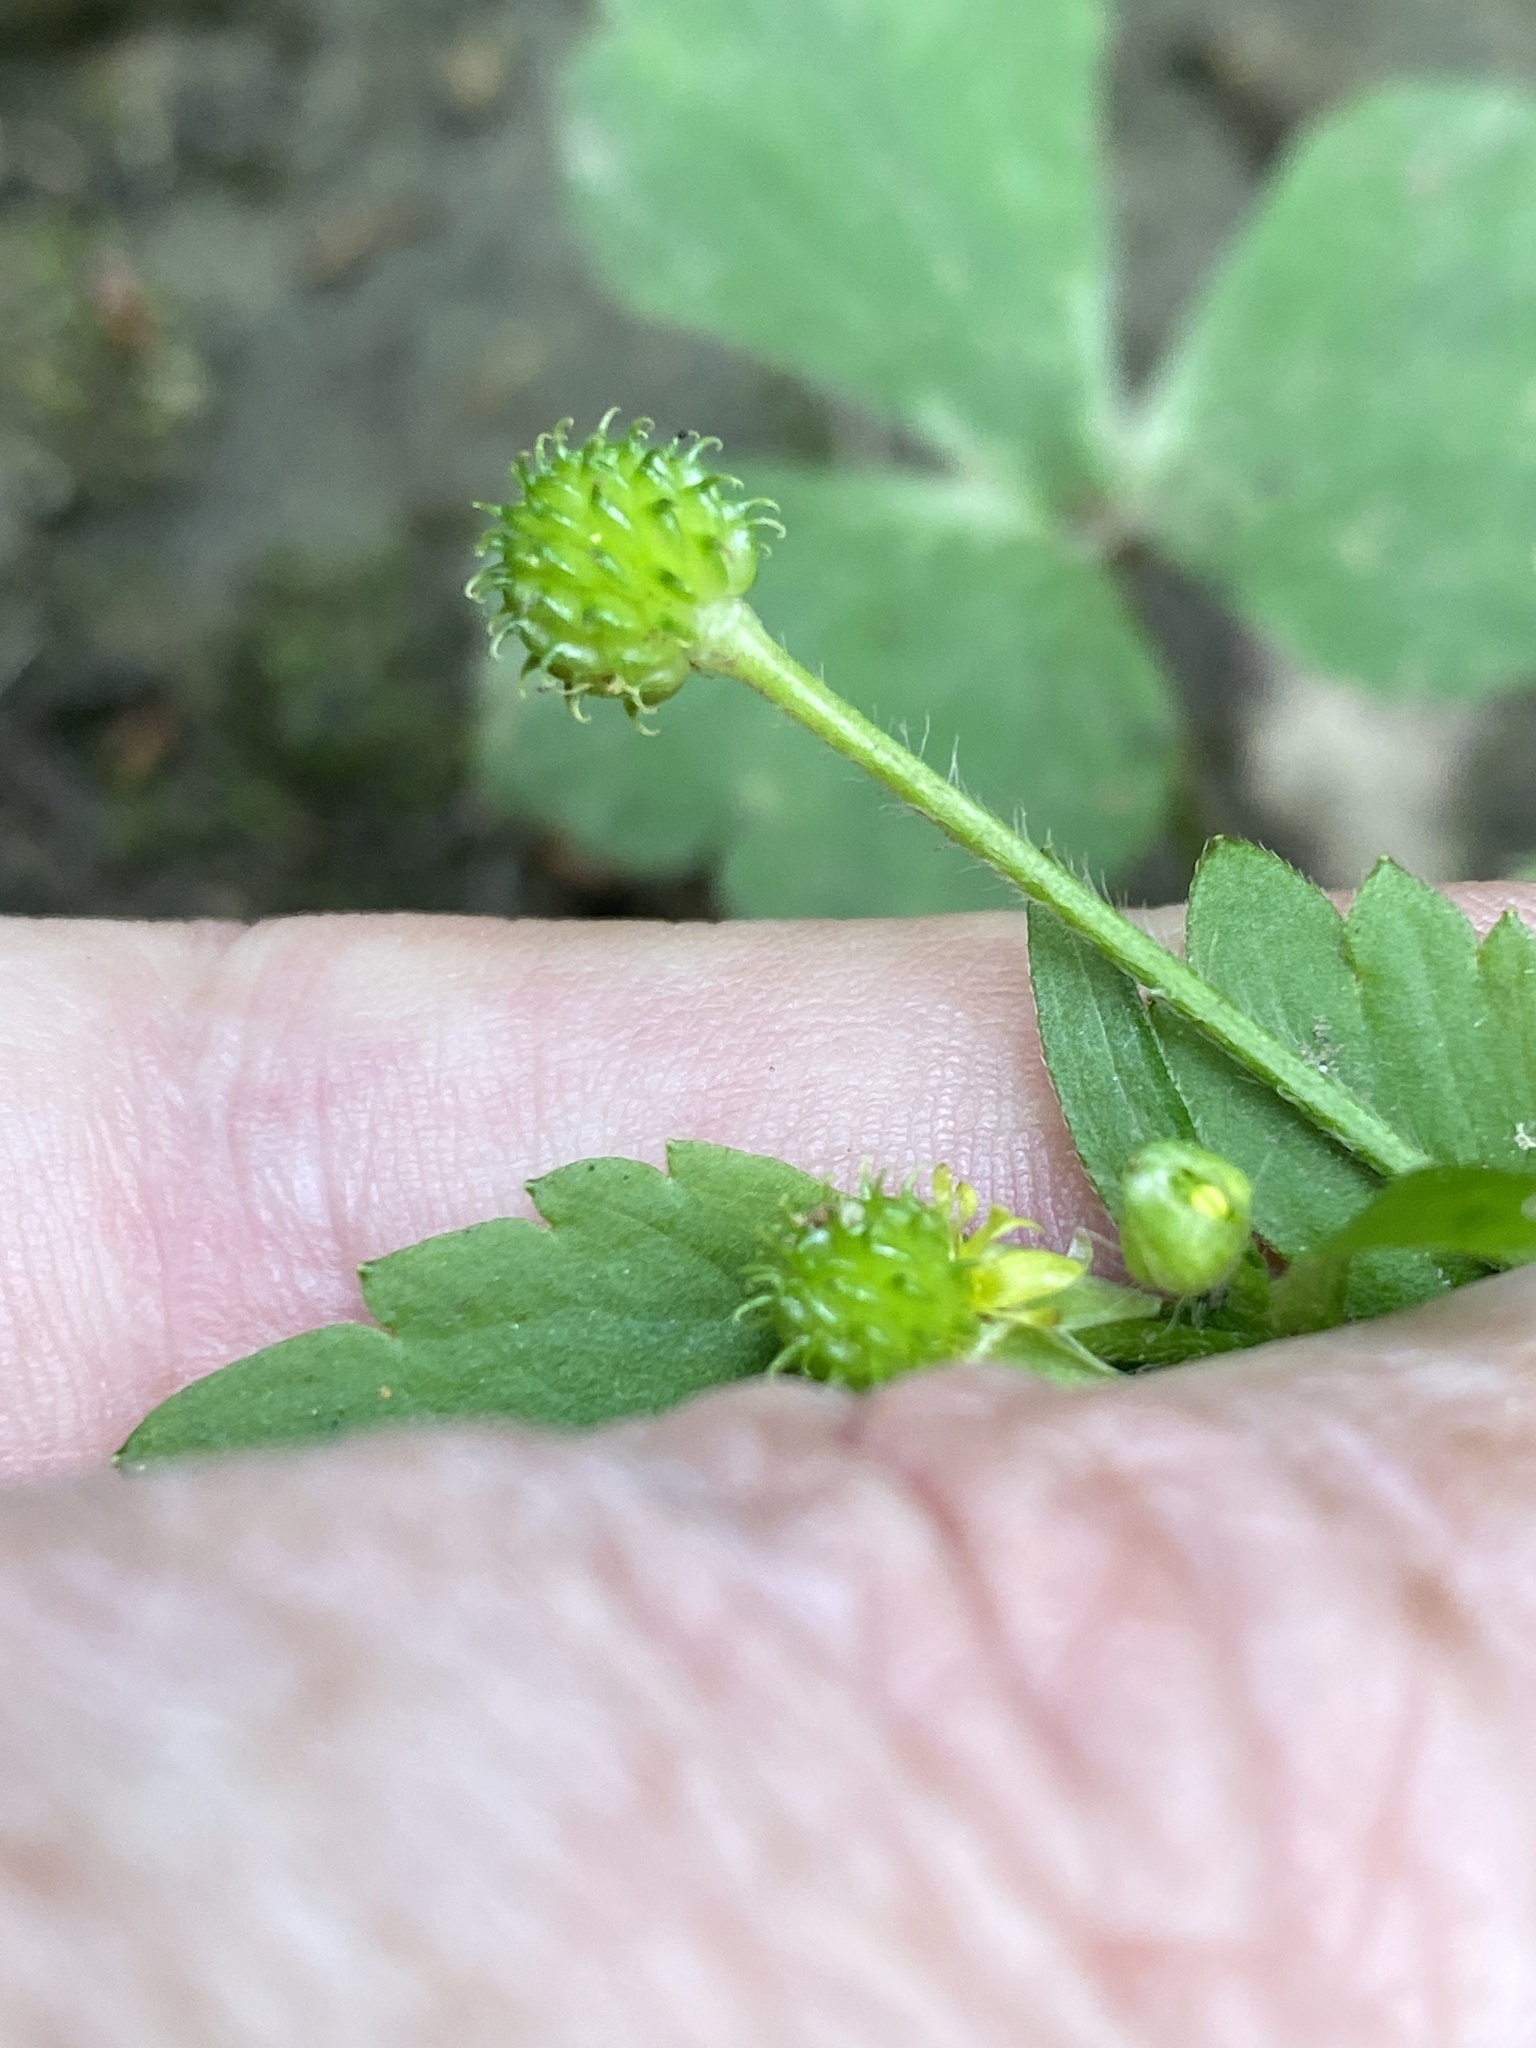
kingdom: Plantae
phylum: Tracheophyta
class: Magnoliopsida
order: Ranunculales
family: Ranunculaceae
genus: Ranunculus
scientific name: Ranunculus recurvatus
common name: Blisterwort
